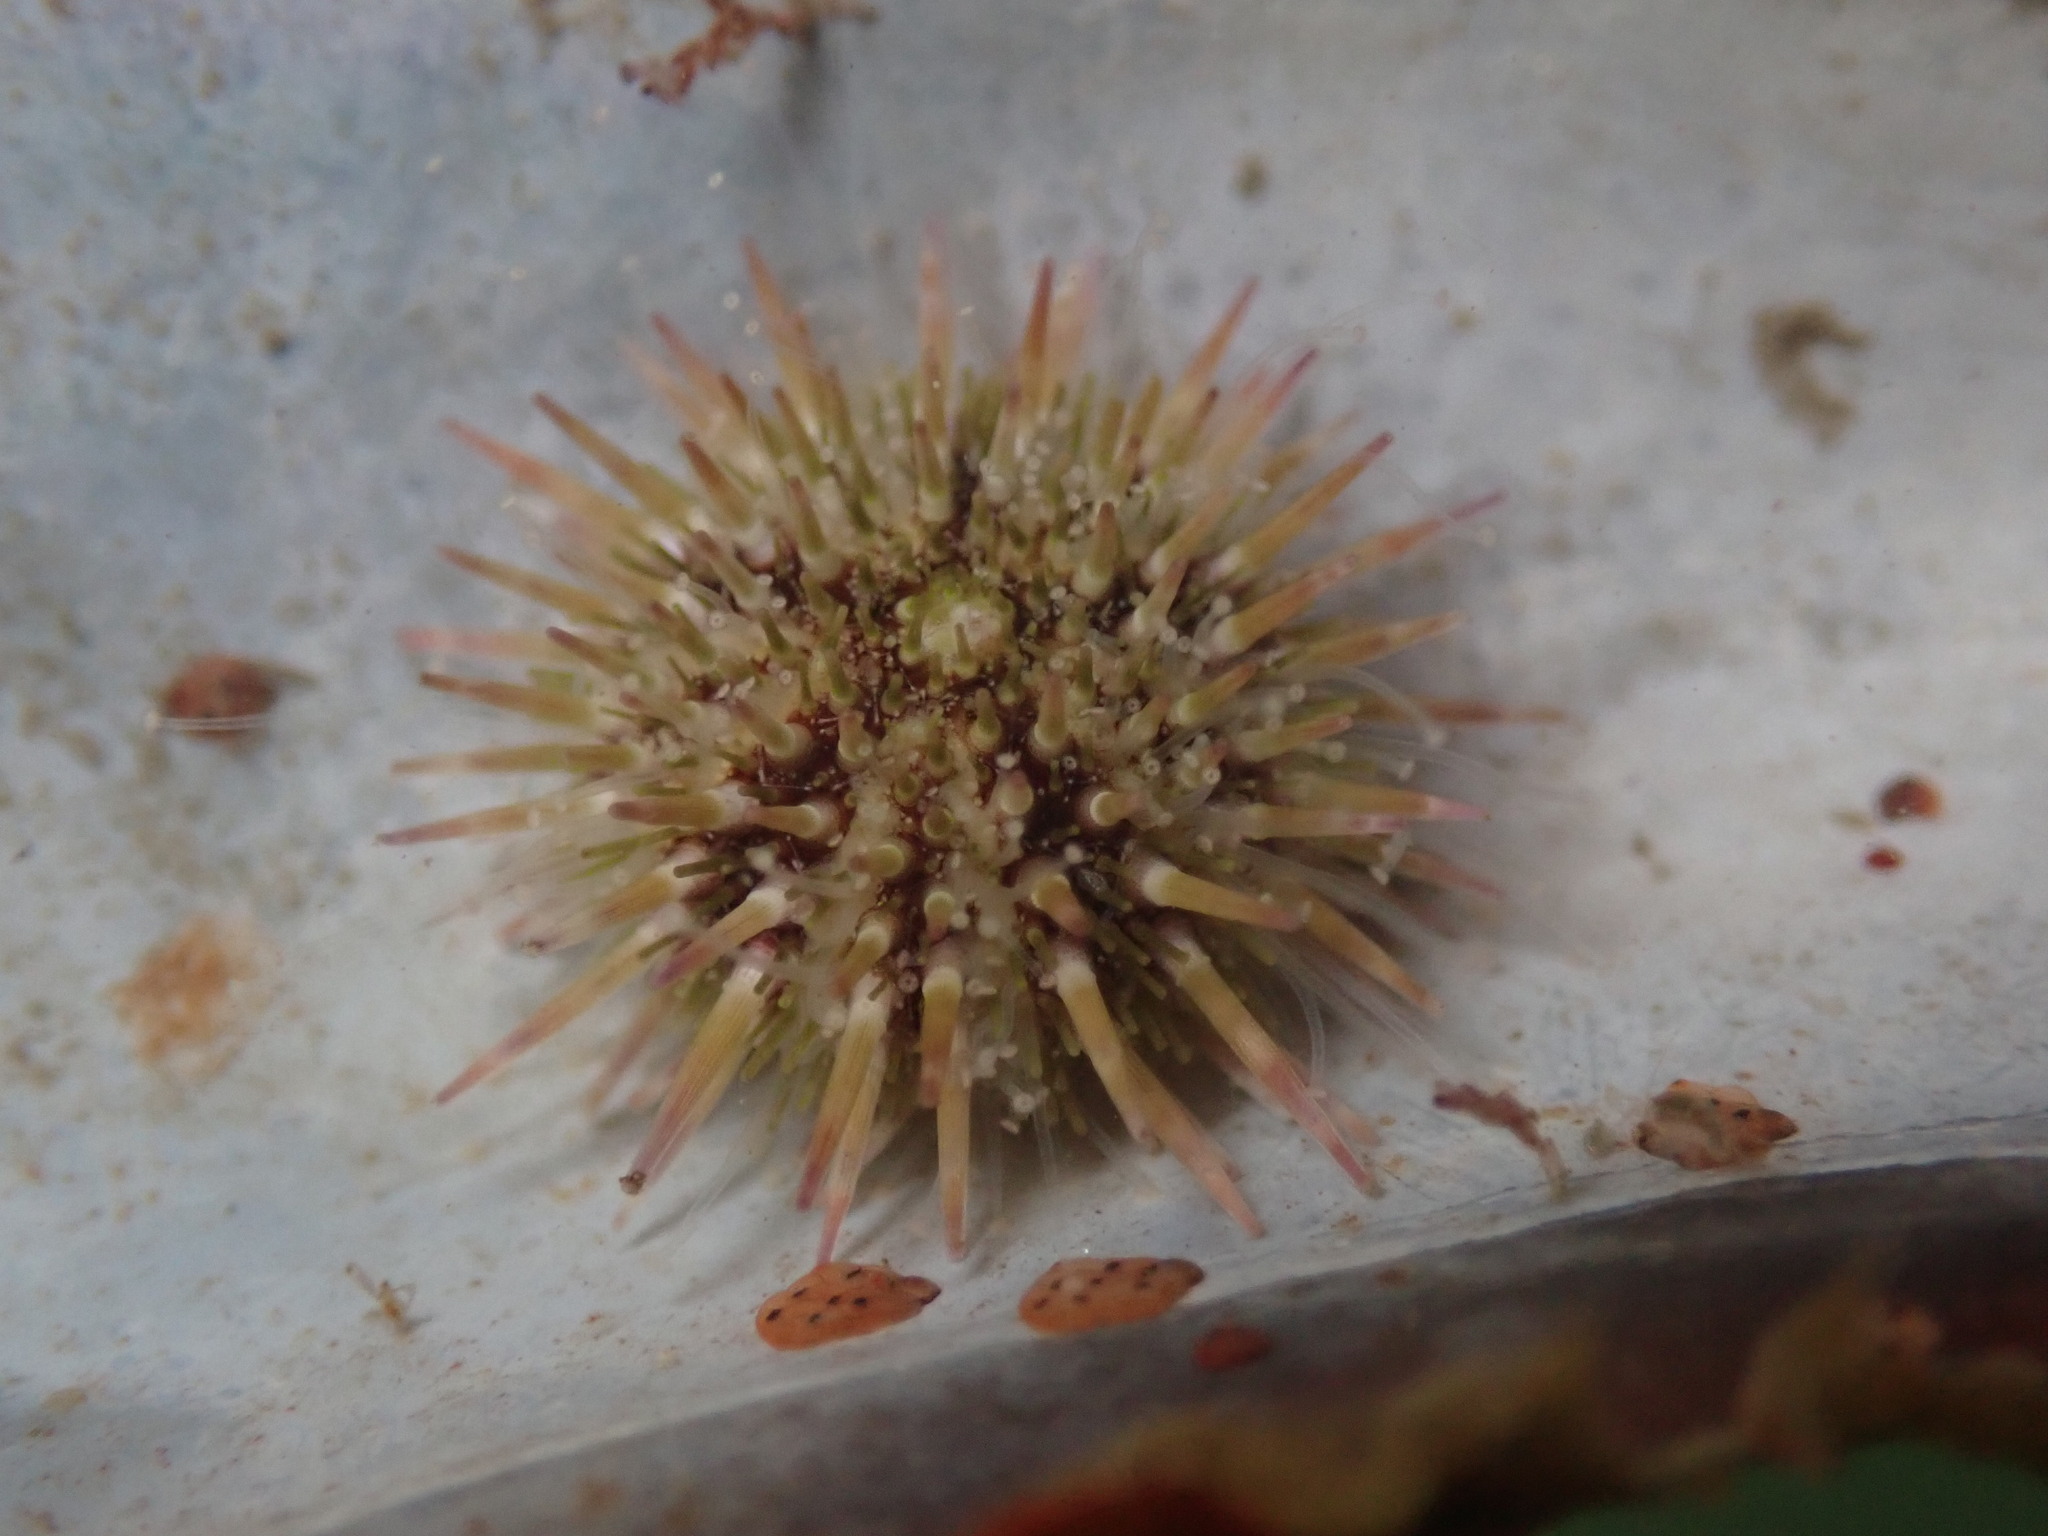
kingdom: Animalia
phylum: Echinodermata
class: Echinoidea
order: Camarodonta
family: Strongylocentrotidae
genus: Strongylocentrotus
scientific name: Strongylocentrotus purpuratus
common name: Purple sea urchin
